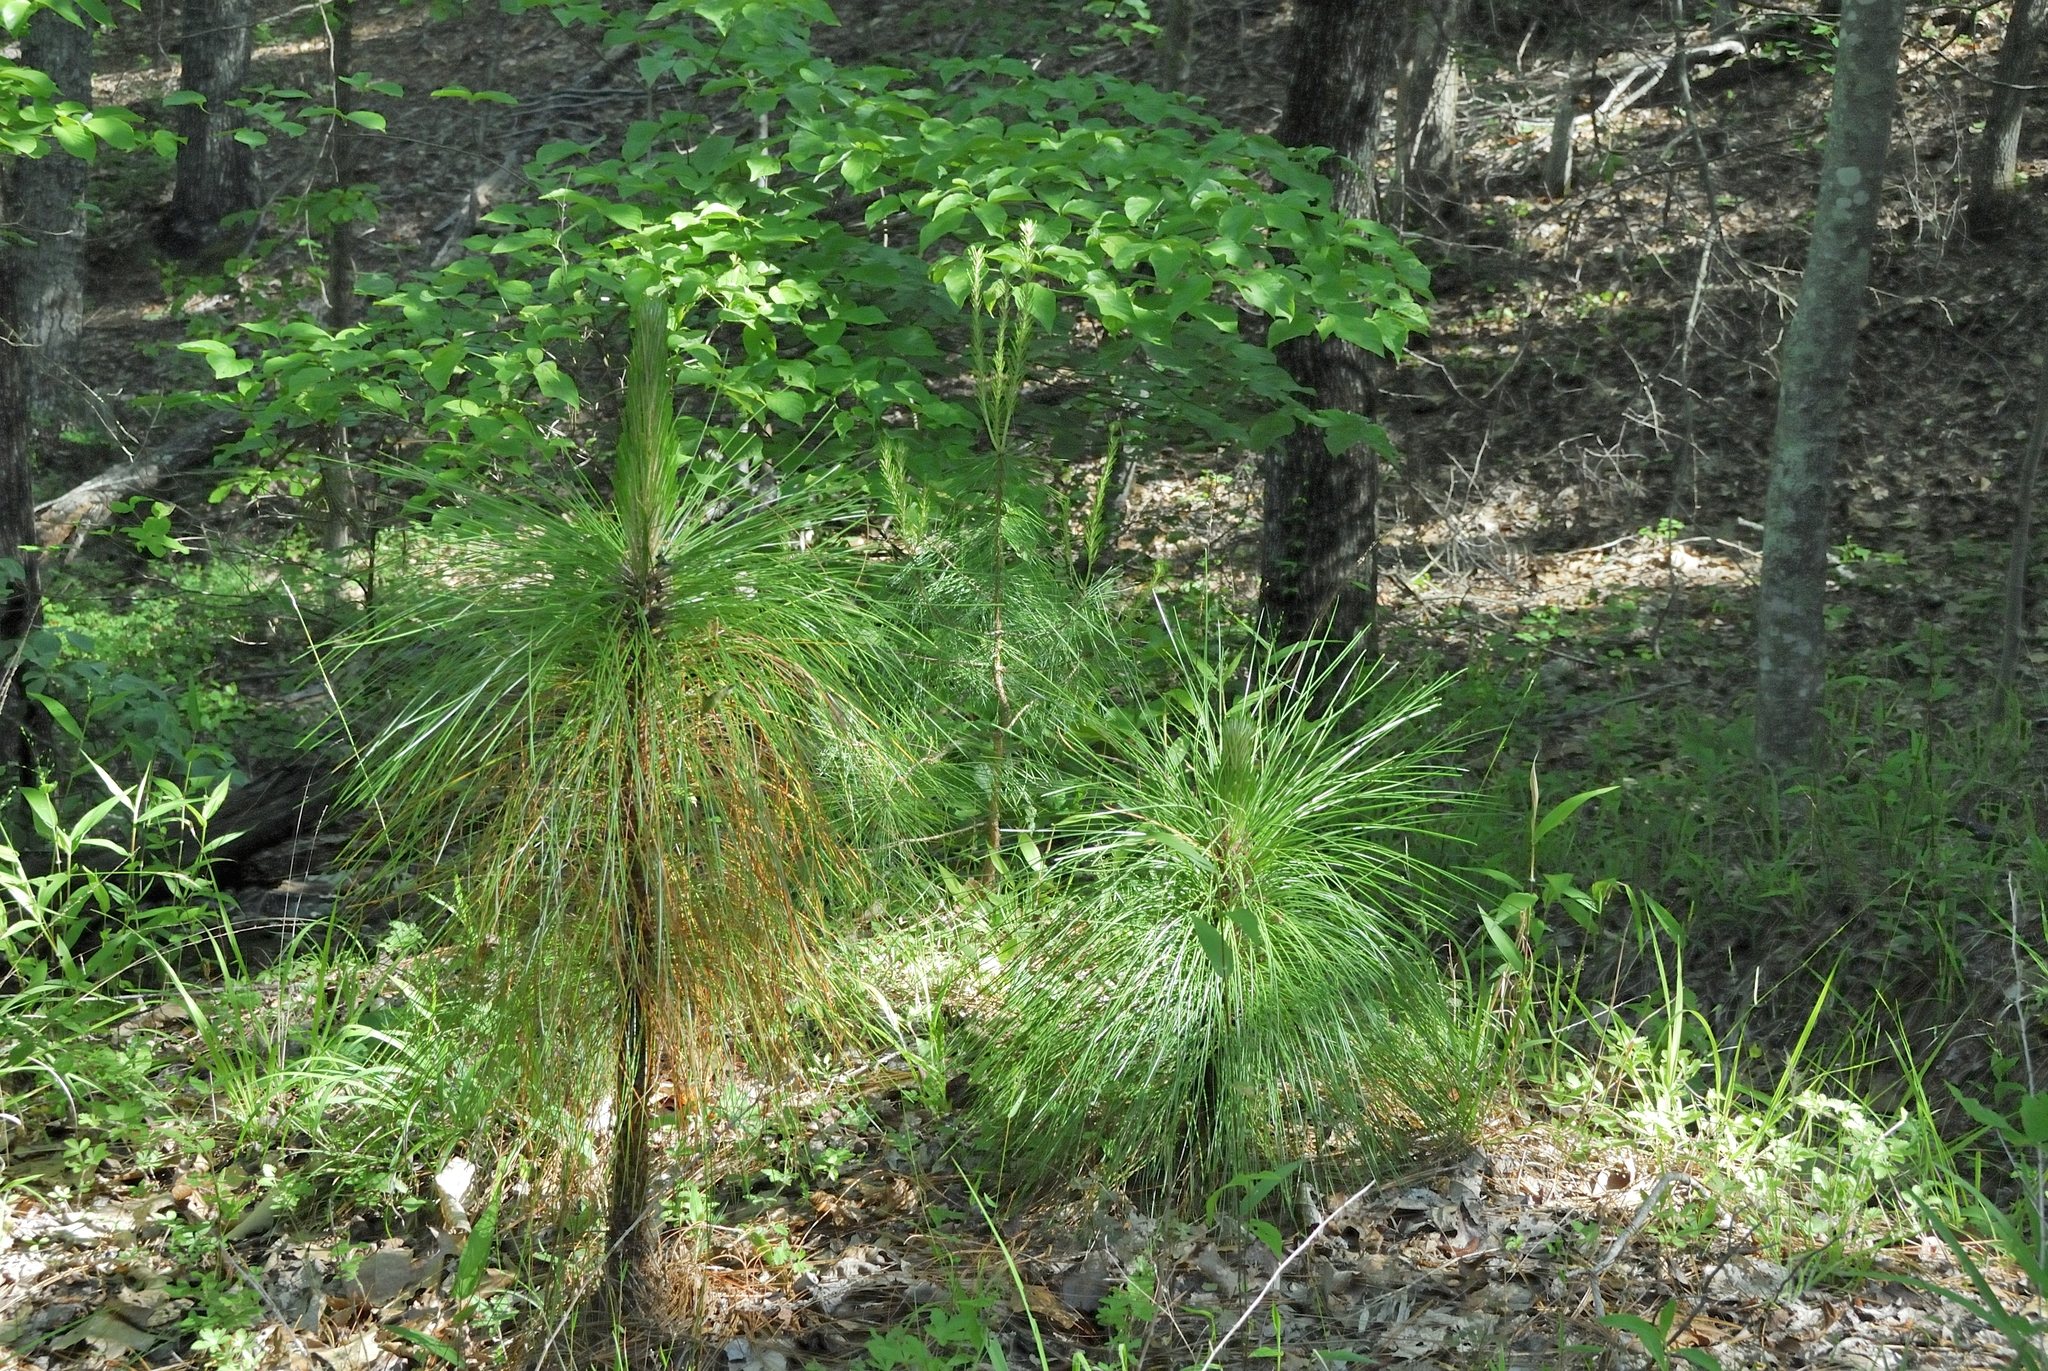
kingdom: Plantae
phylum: Tracheophyta
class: Pinopsida
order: Pinales
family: Pinaceae
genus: Pinus
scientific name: Pinus palustris
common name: Longleaf pine
